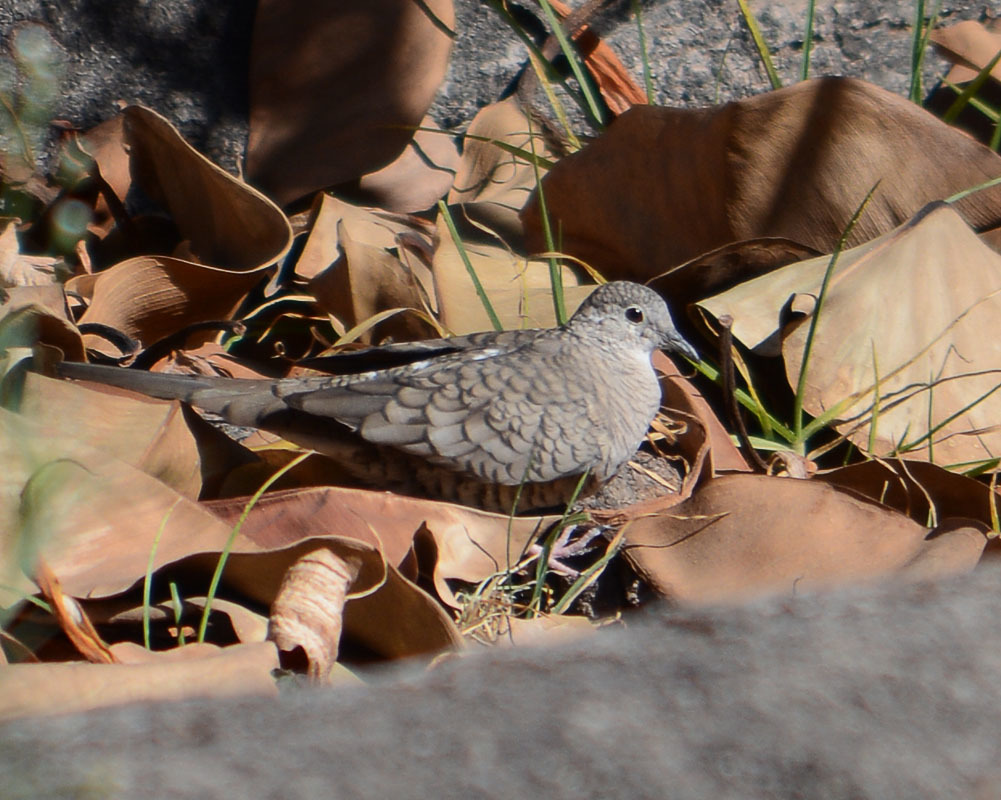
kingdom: Animalia
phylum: Chordata
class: Aves
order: Columbiformes
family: Columbidae
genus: Columbina
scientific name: Columbina inca
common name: Inca dove
